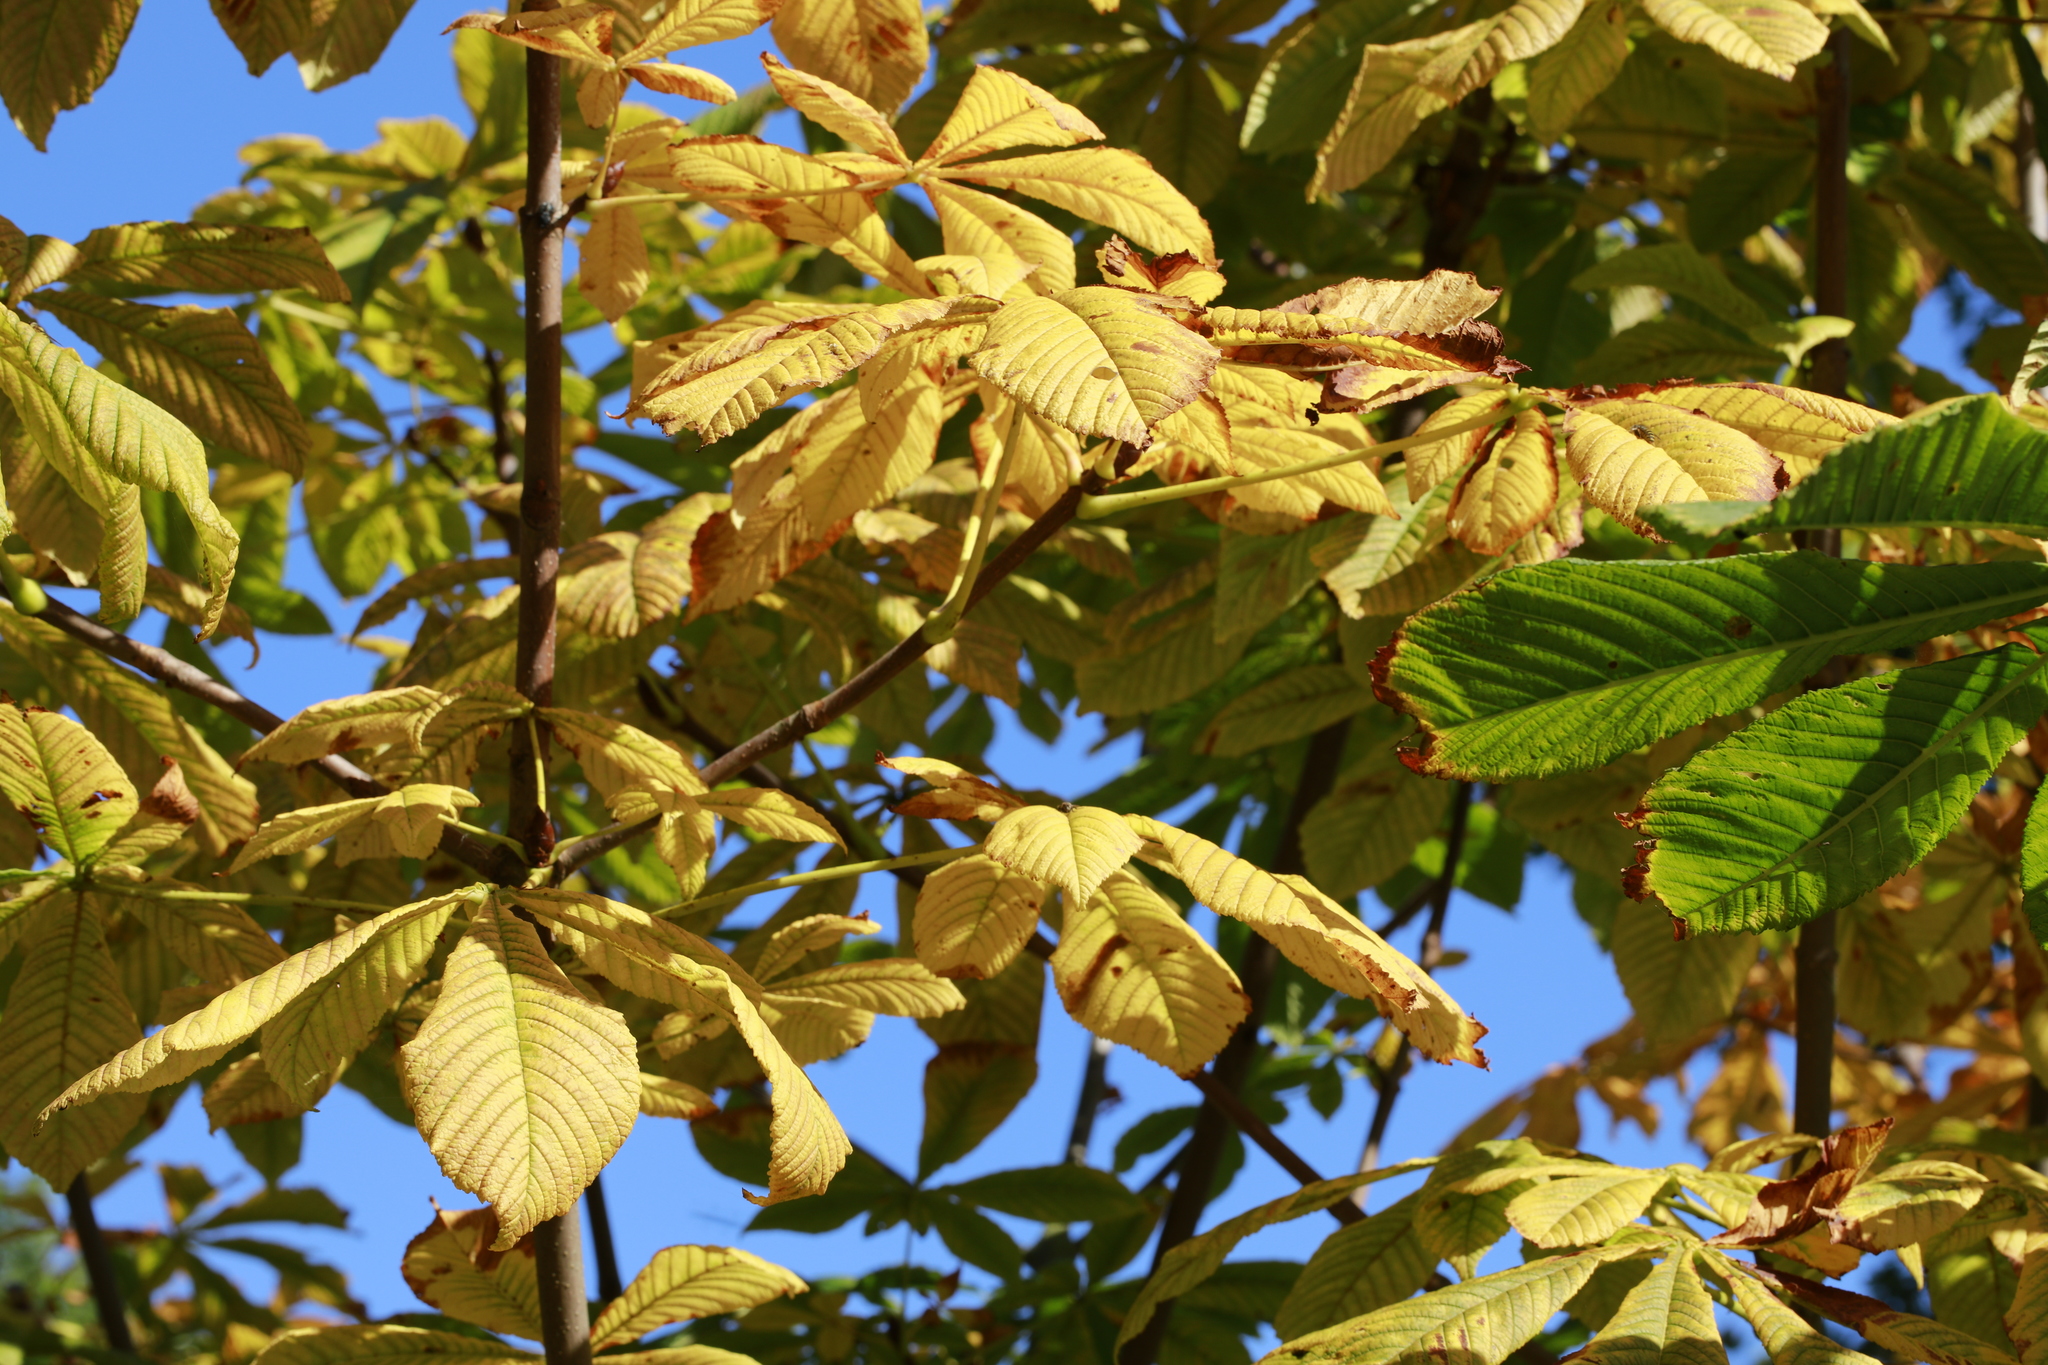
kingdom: Plantae
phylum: Tracheophyta
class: Magnoliopsida
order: Sapindales
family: Sapindaceae
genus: Aesculus
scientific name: Aesculus hippocastanum
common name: Horse-chestnut
